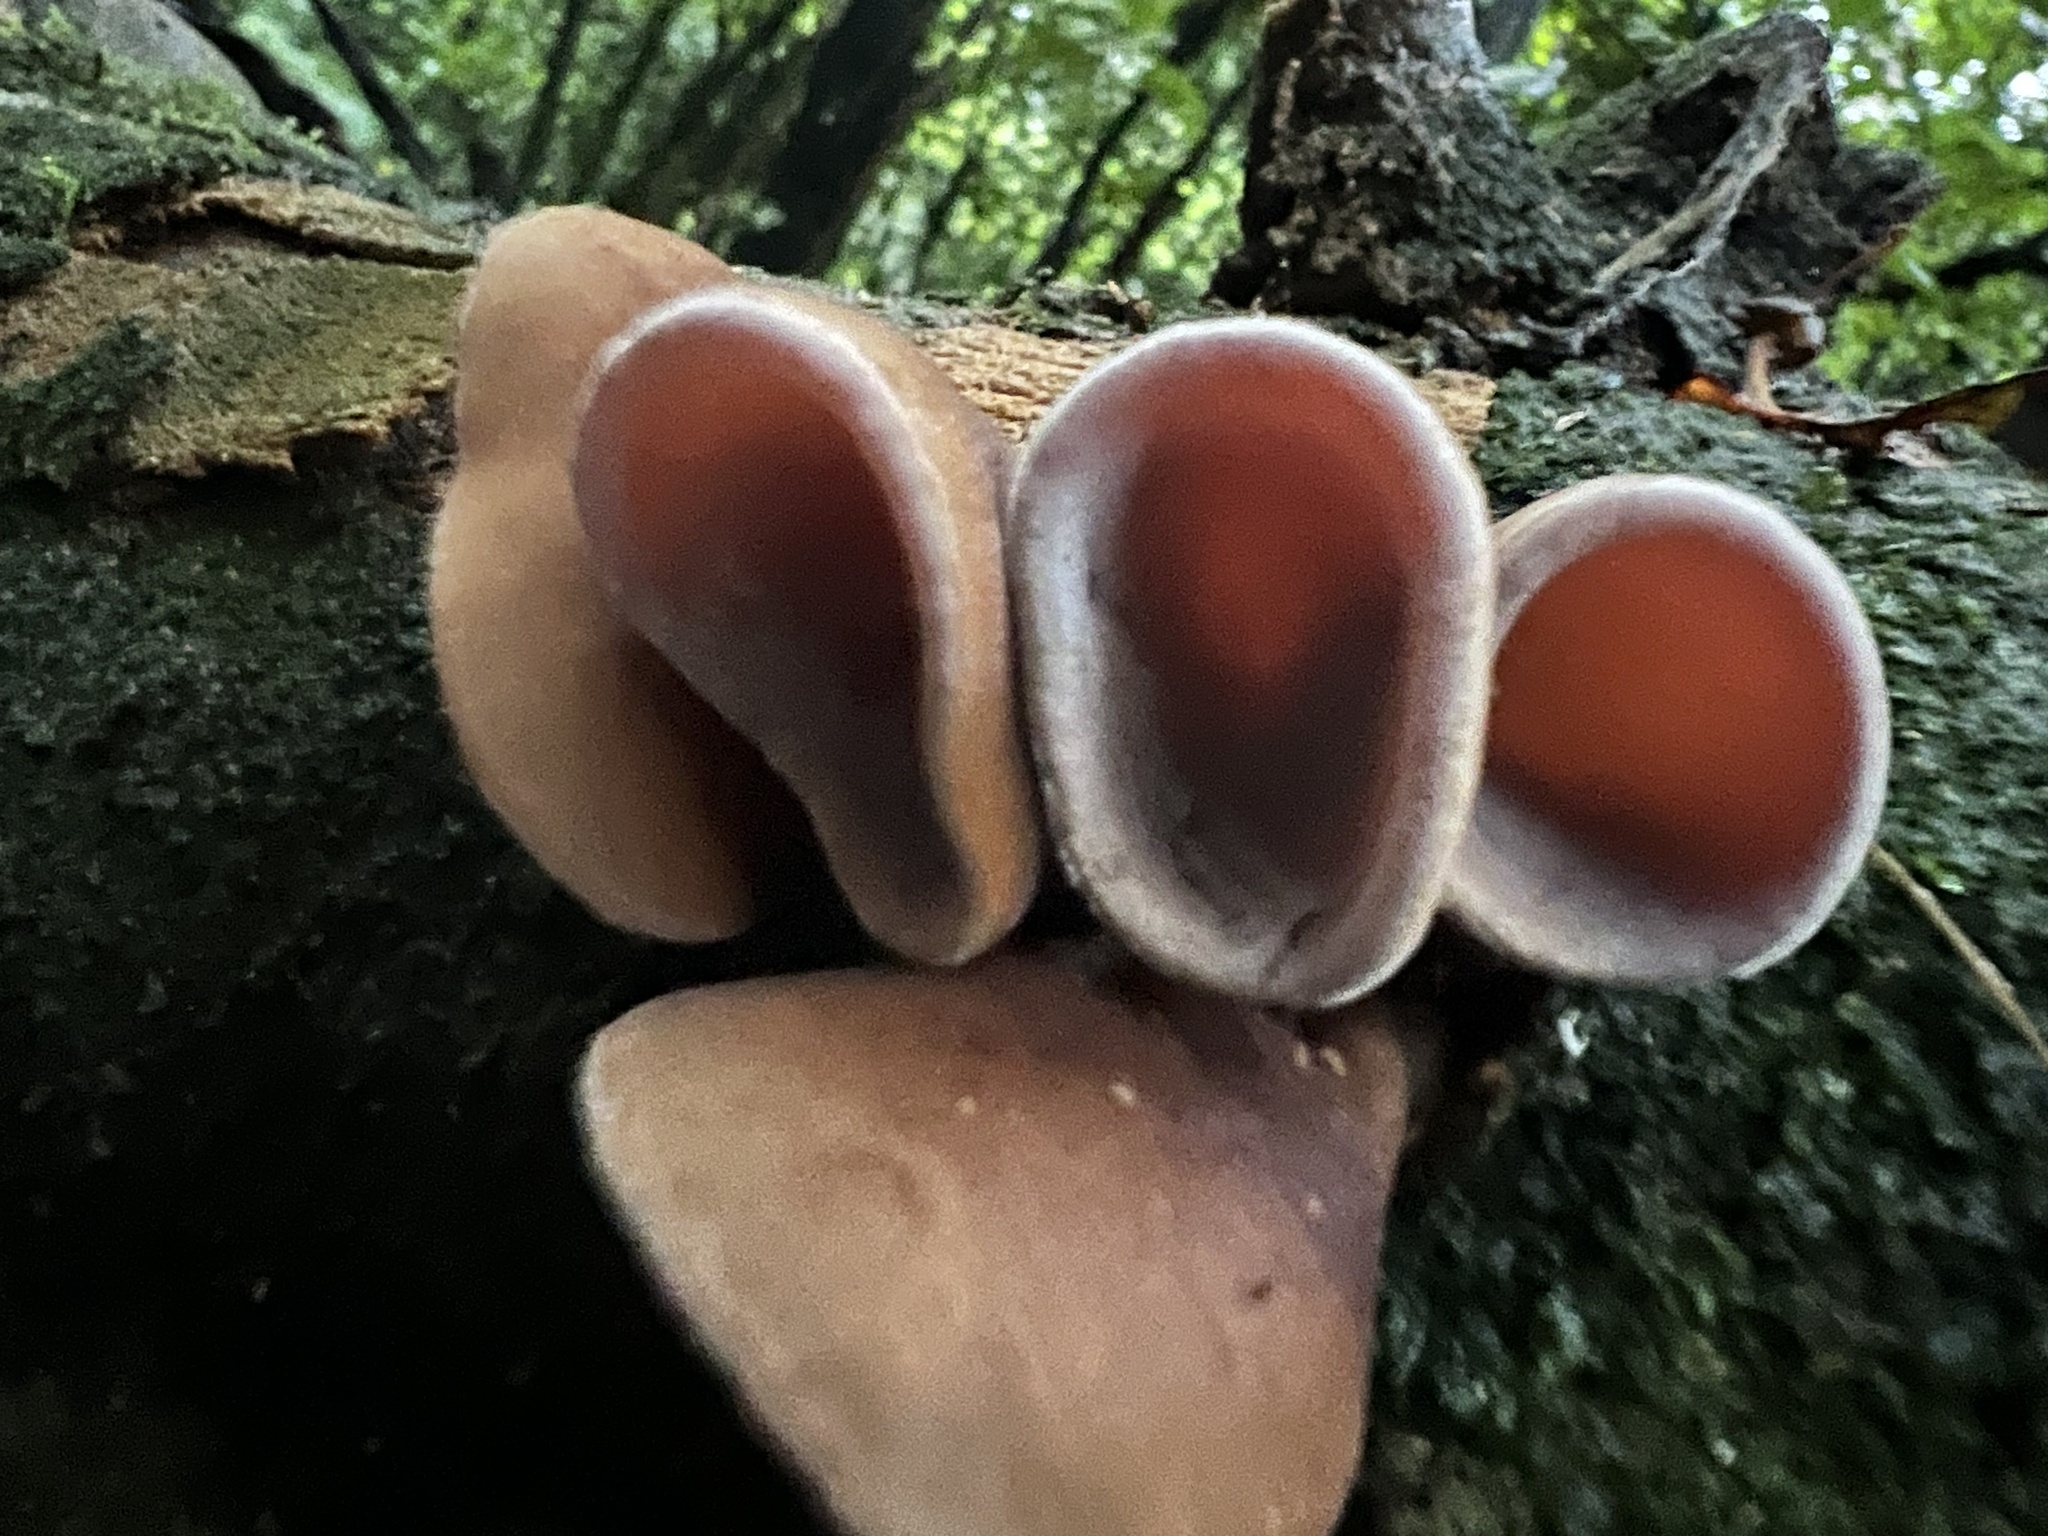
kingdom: Fungi
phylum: Basidiomycota
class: Agaricomycetes
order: Auriculariales
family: Auriculariaceae
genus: Auricularia
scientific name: Auricularia cornea
